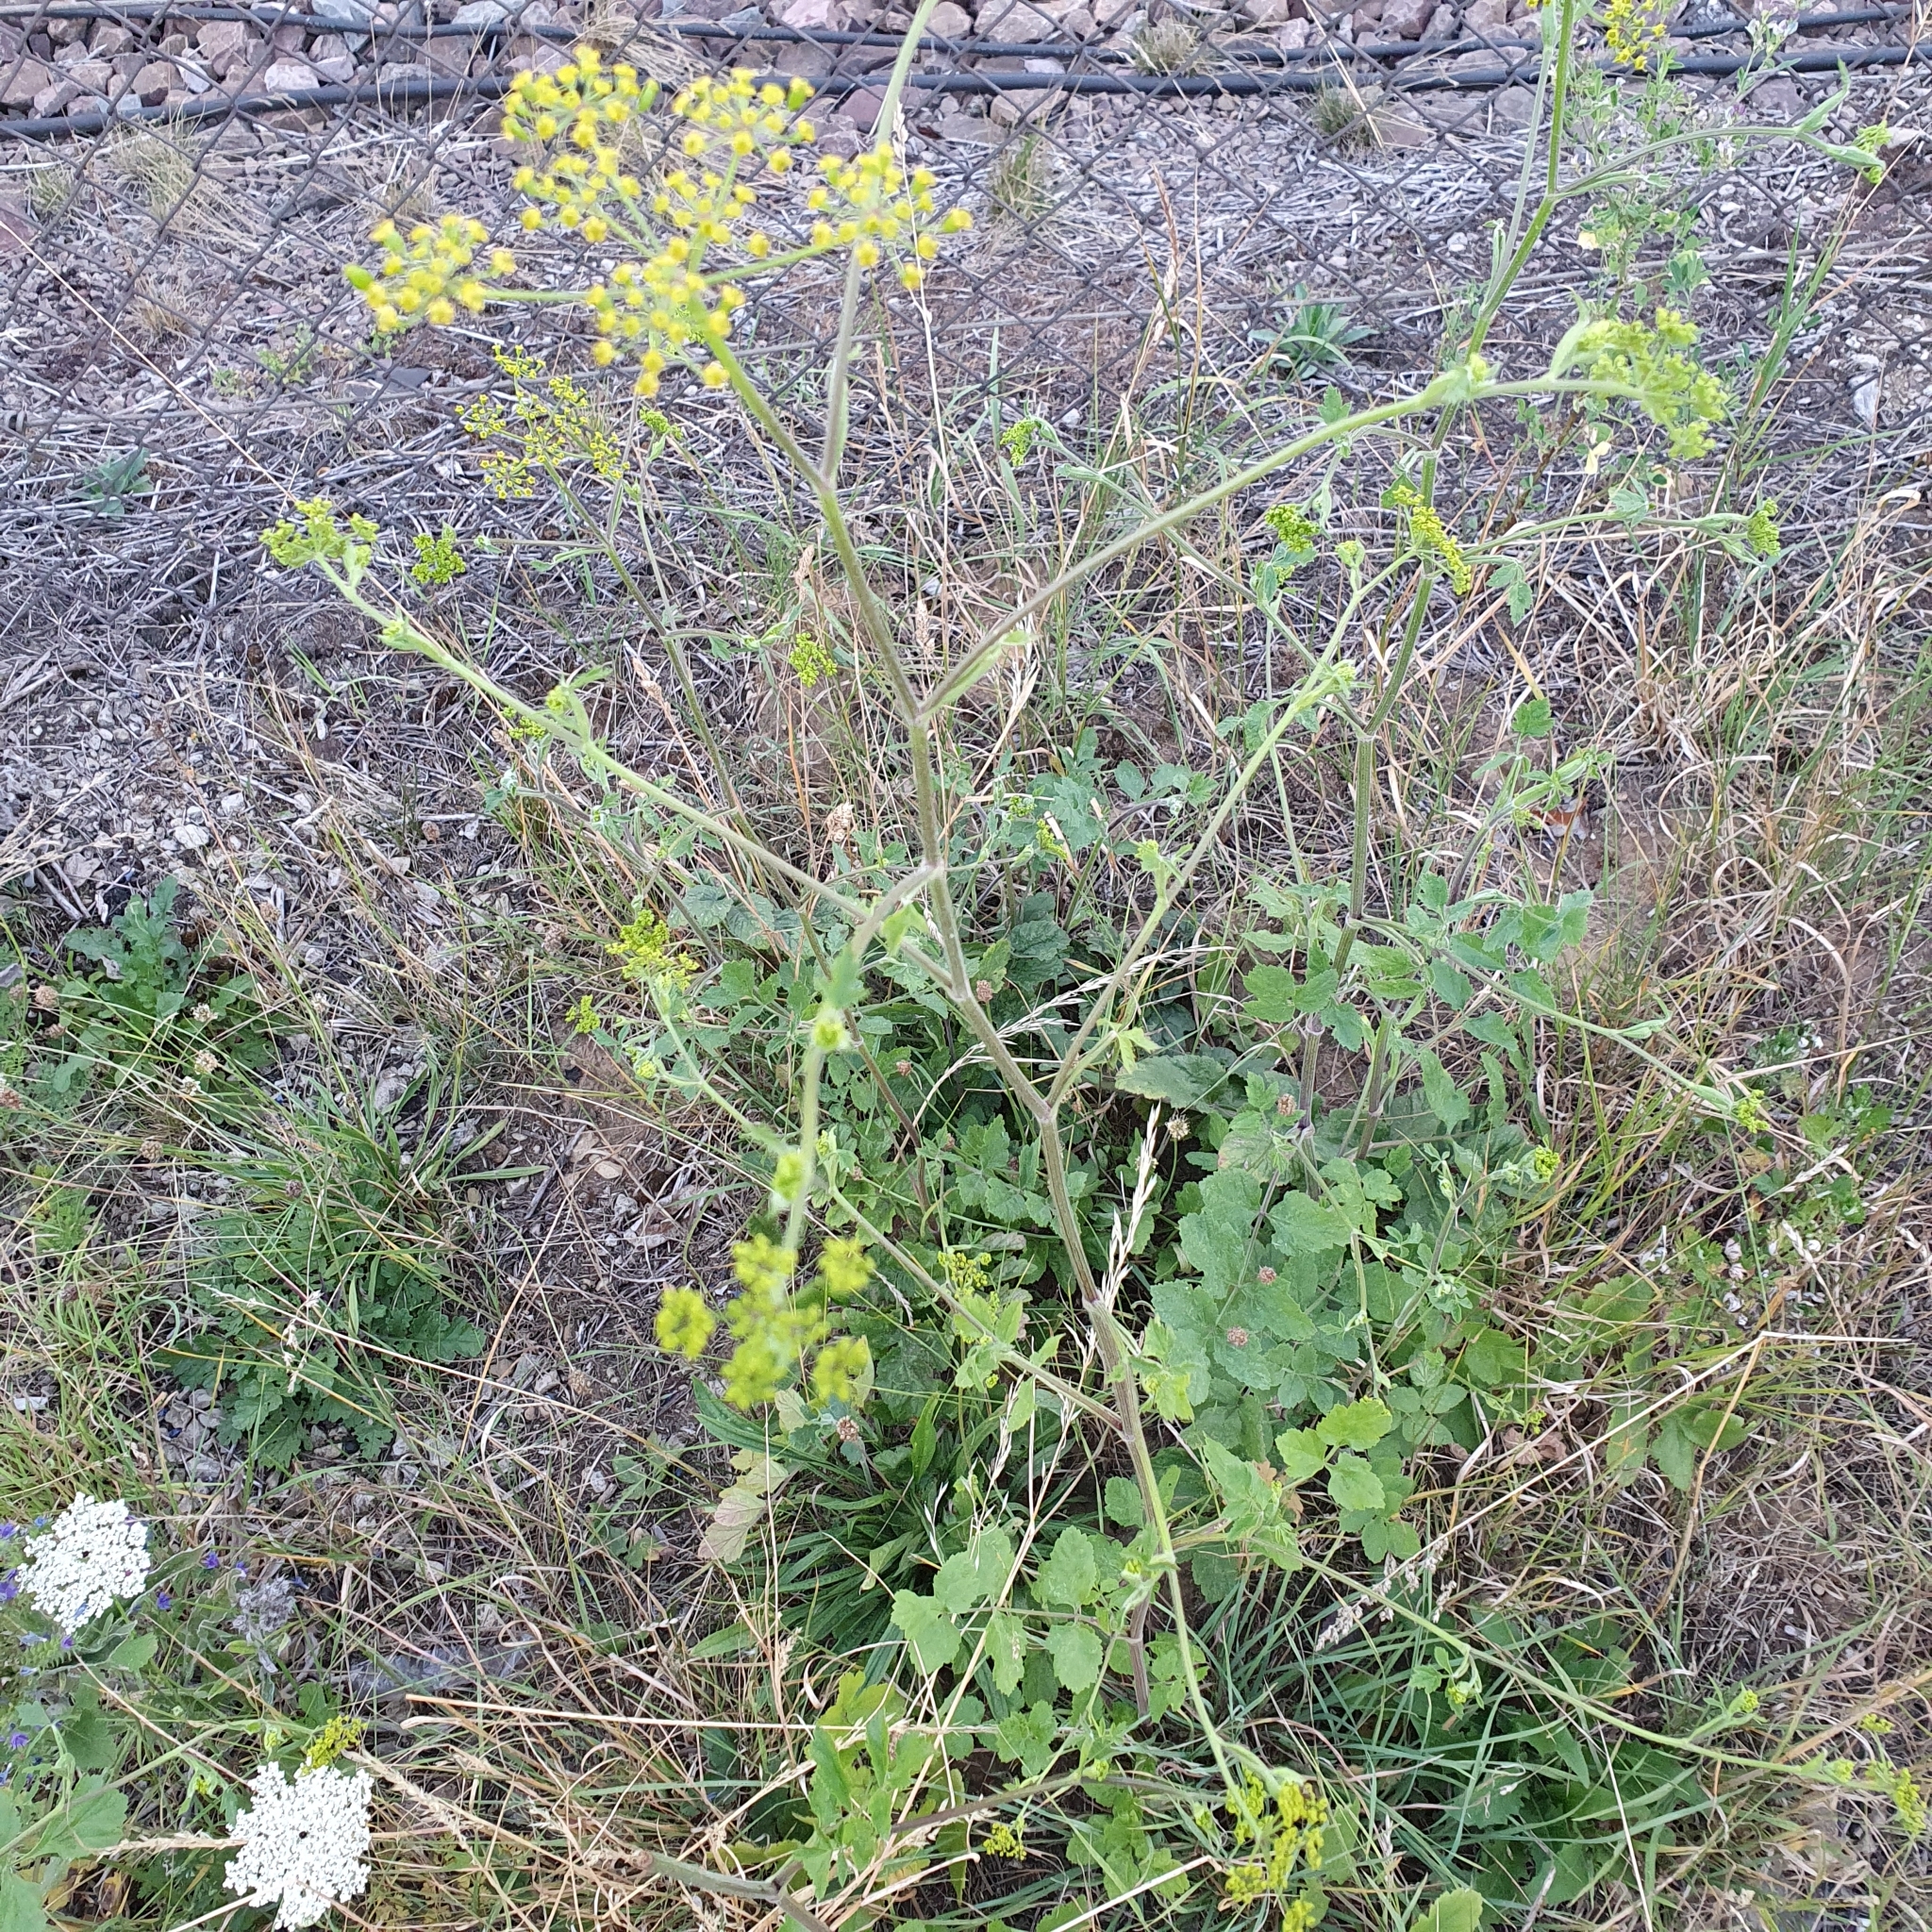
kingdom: Plantae
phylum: Tracheophyta
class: Magnoliopsida
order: Apiales
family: Apiaceae
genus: Pastinaca
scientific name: Pastinaca sativa
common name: Wild parsnip
